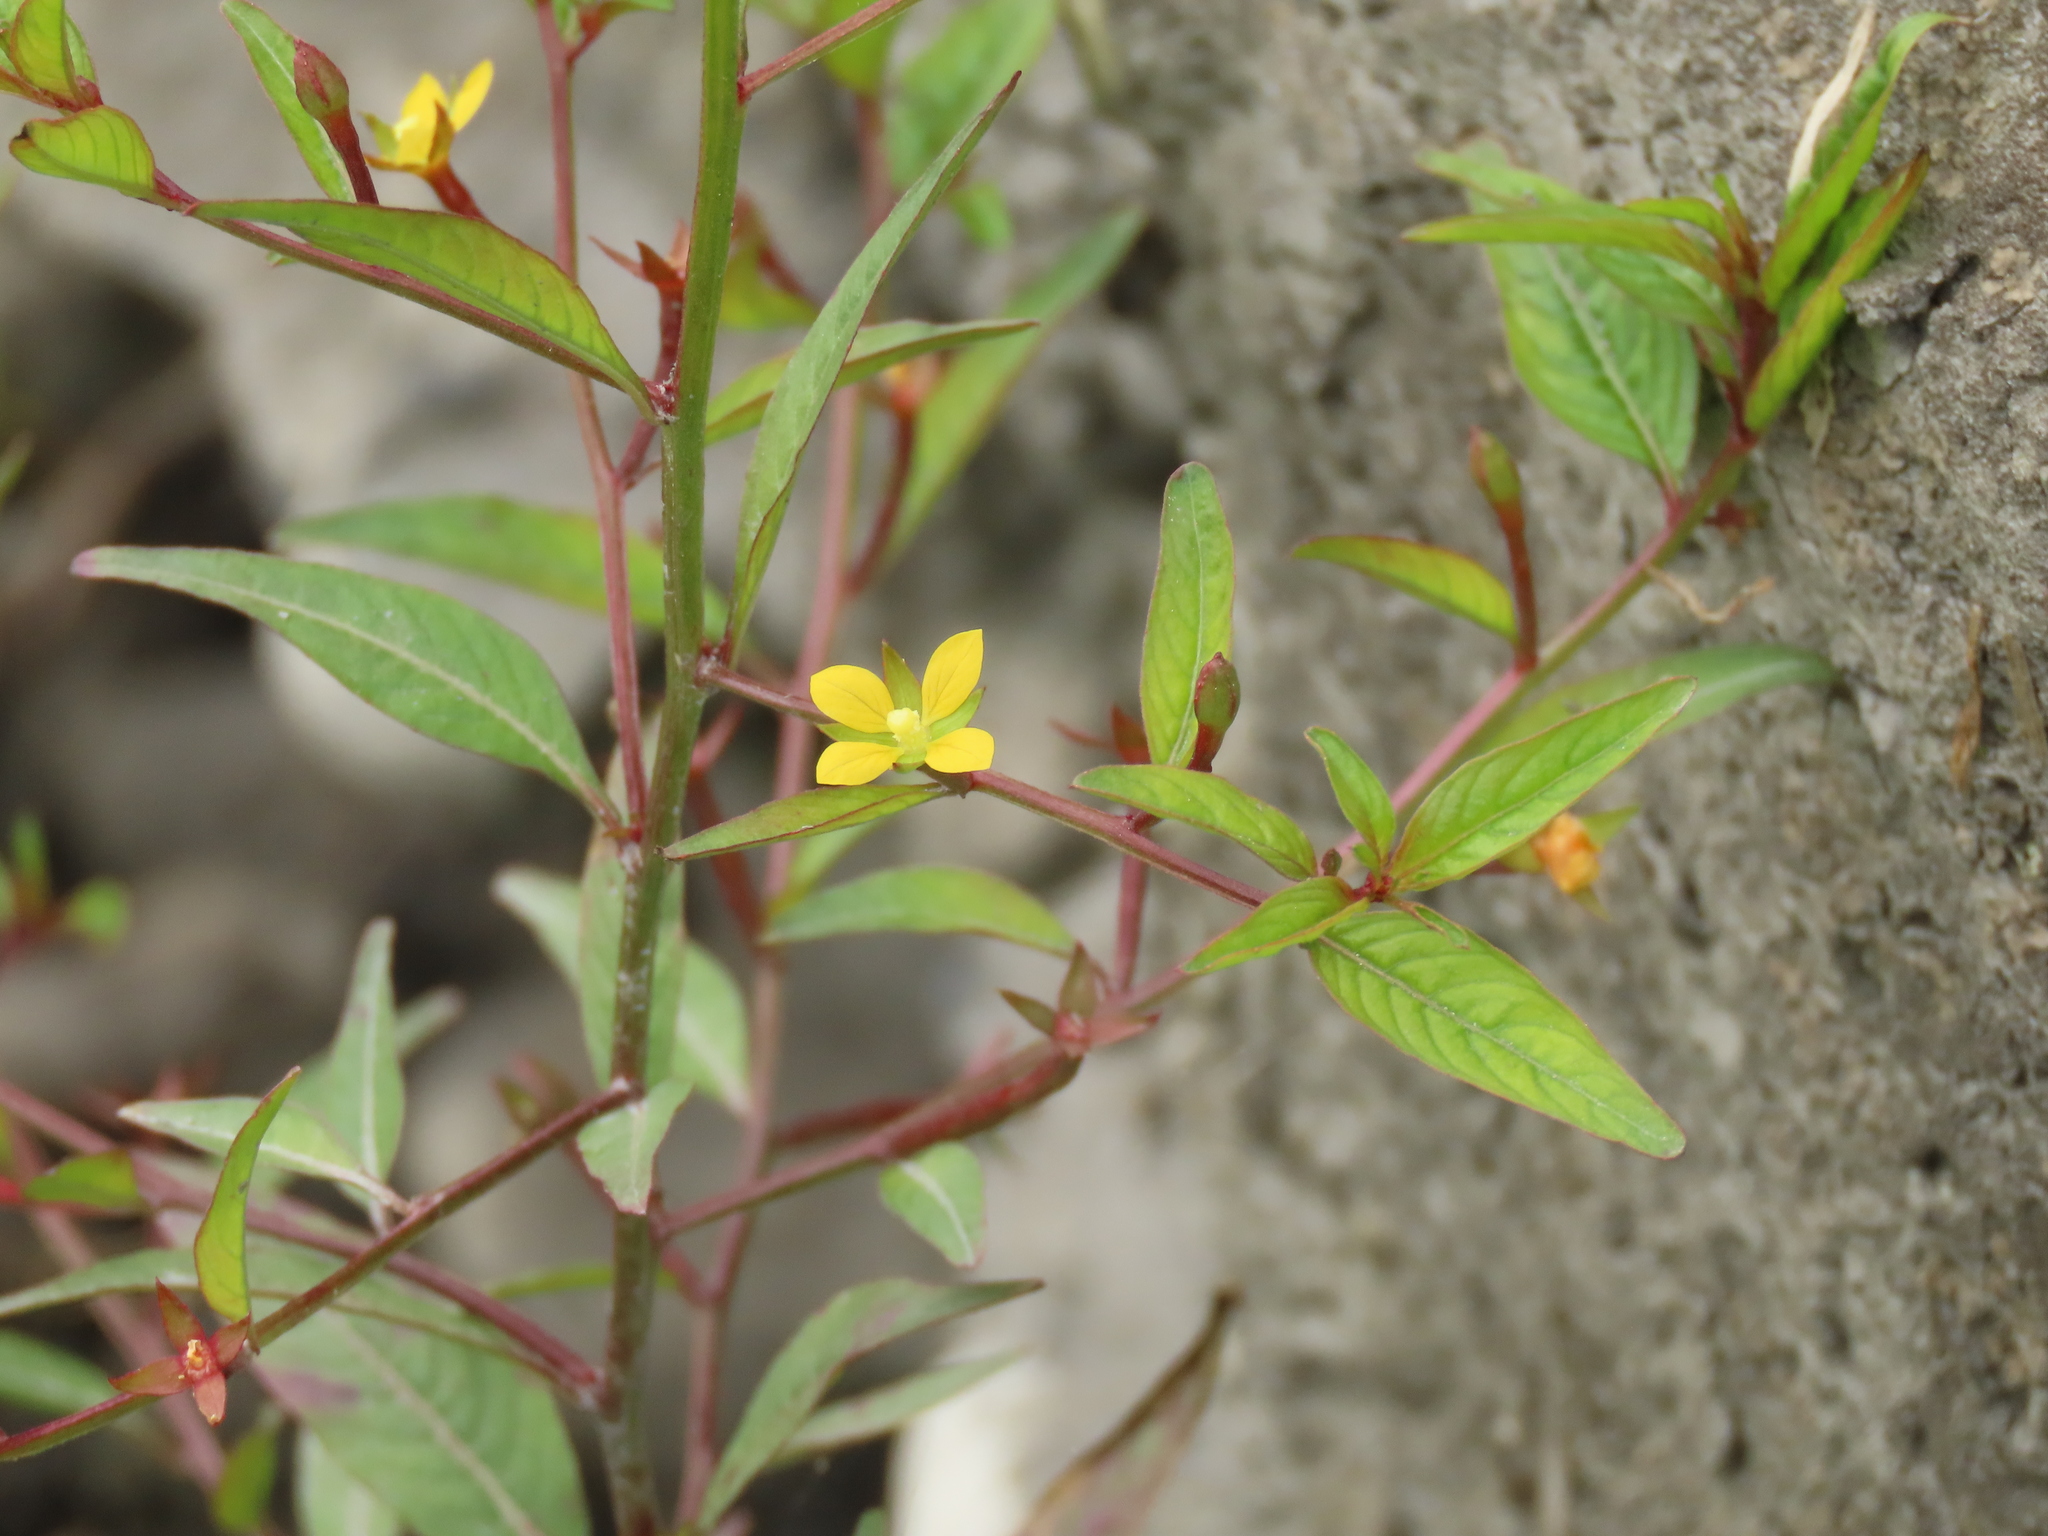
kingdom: Plantae
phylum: Tracheophyta
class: Magnoliopsida
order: Myrtales
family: Onagraceae
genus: Ludwigia
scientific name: Ludwigia hyssopifolia
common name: Linear leaf water primrose
